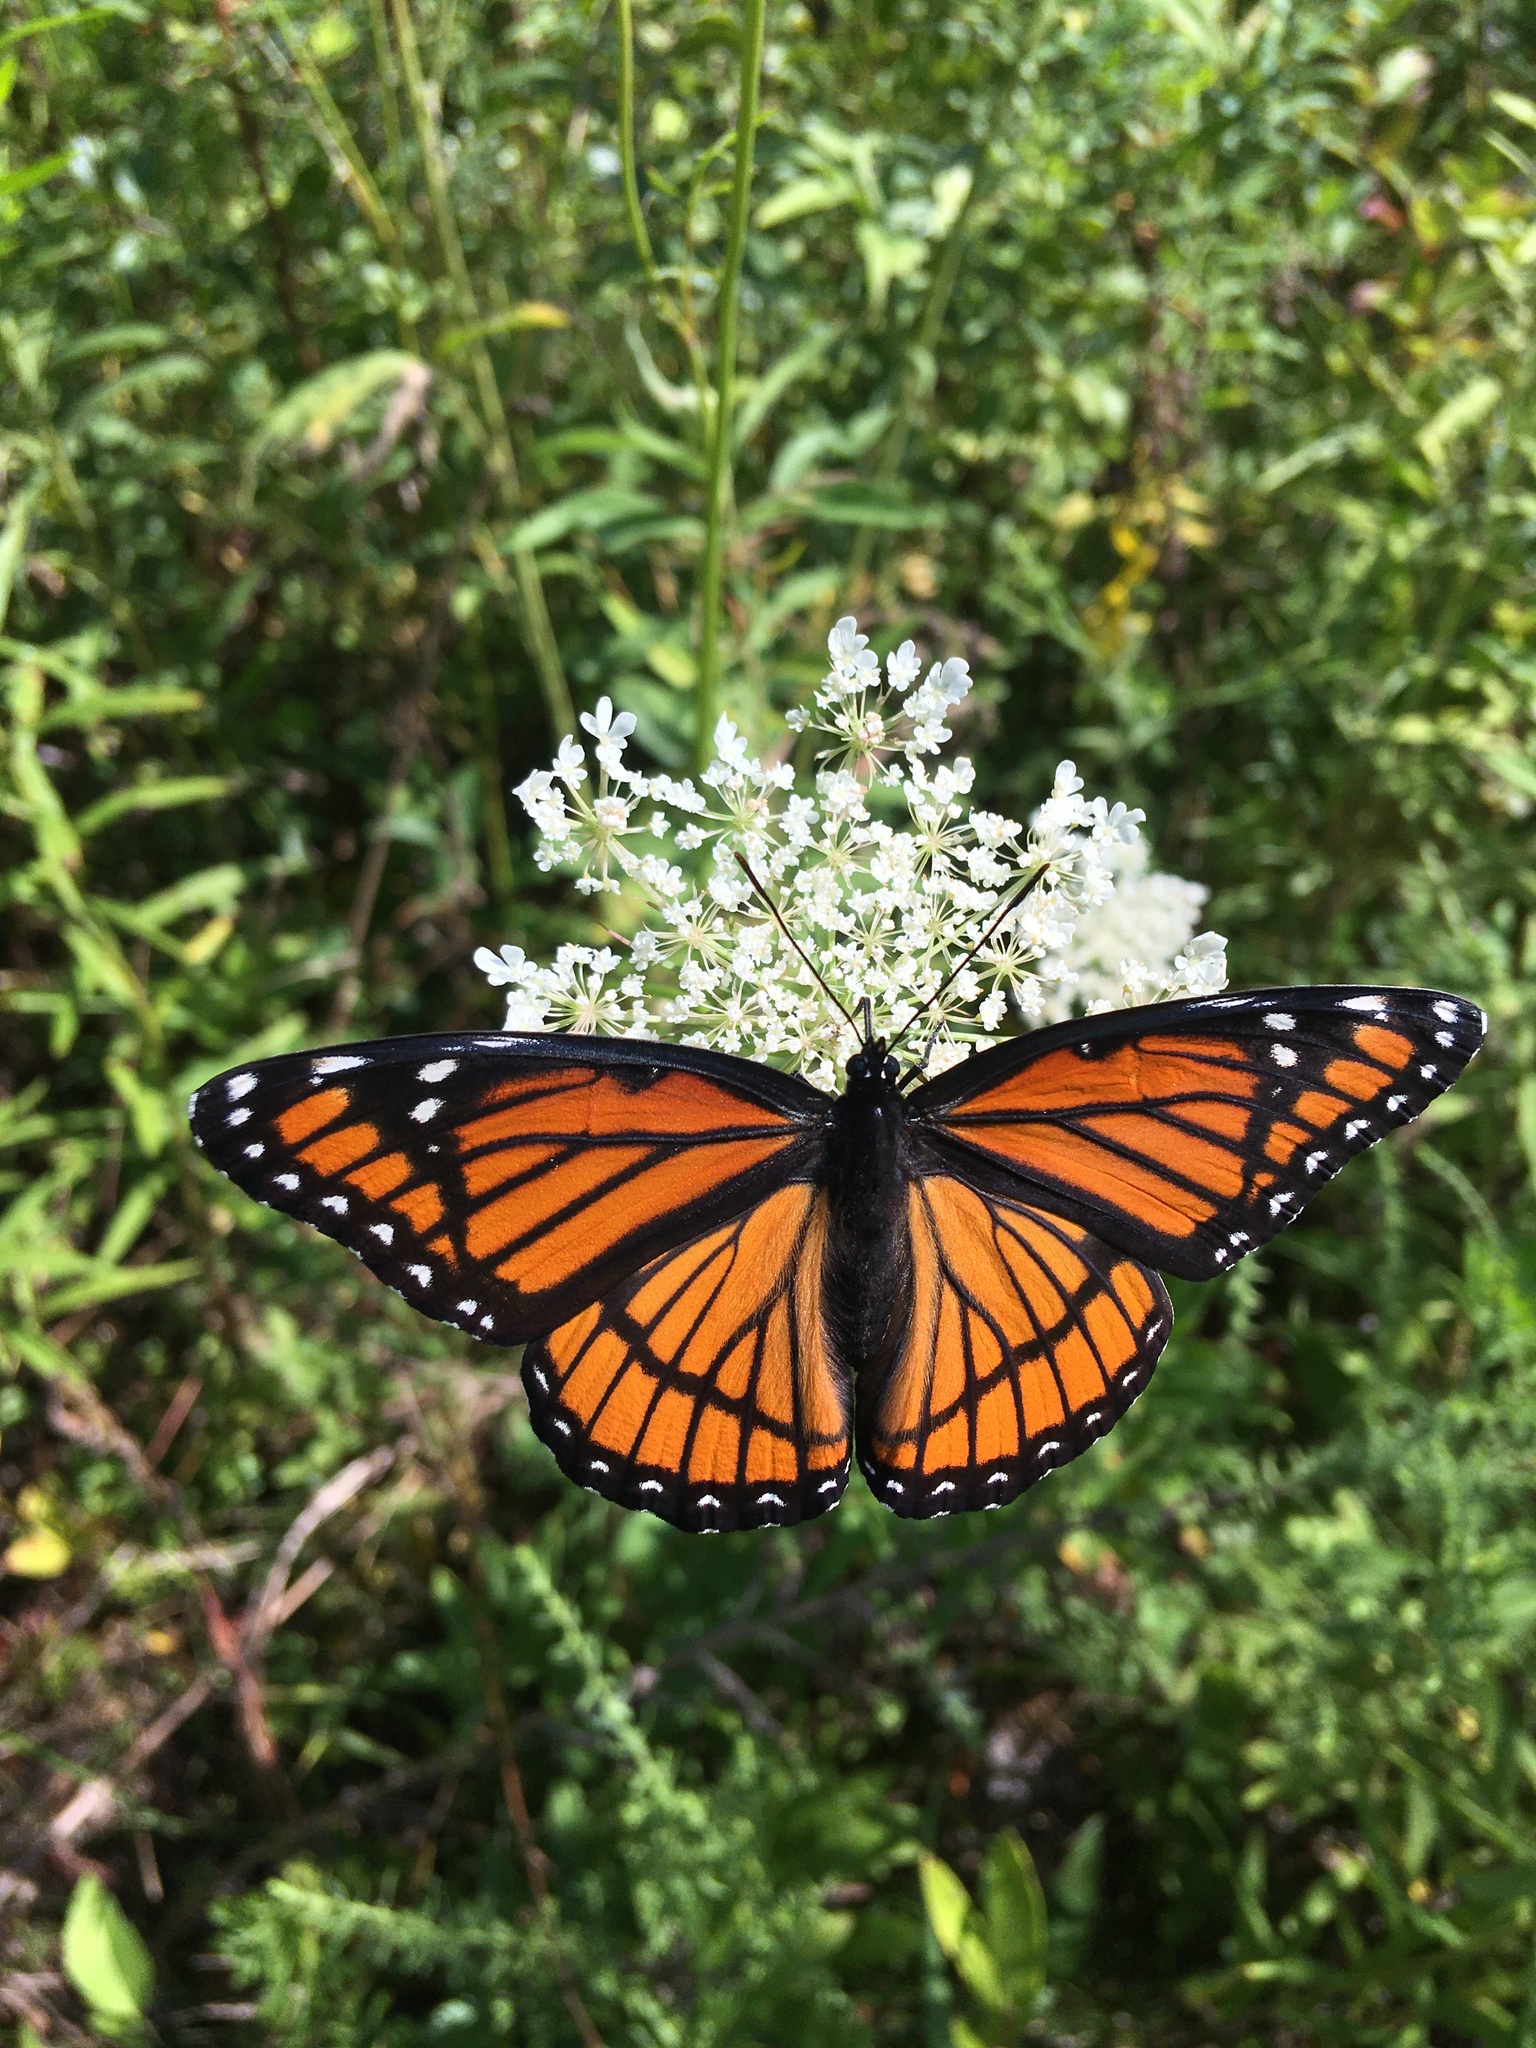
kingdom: Animalia
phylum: Arthropoda
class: Insecta
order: Lepidoptera
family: Nymphalidae
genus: Limenitis
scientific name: Limenitis archippus
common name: Viceroy
